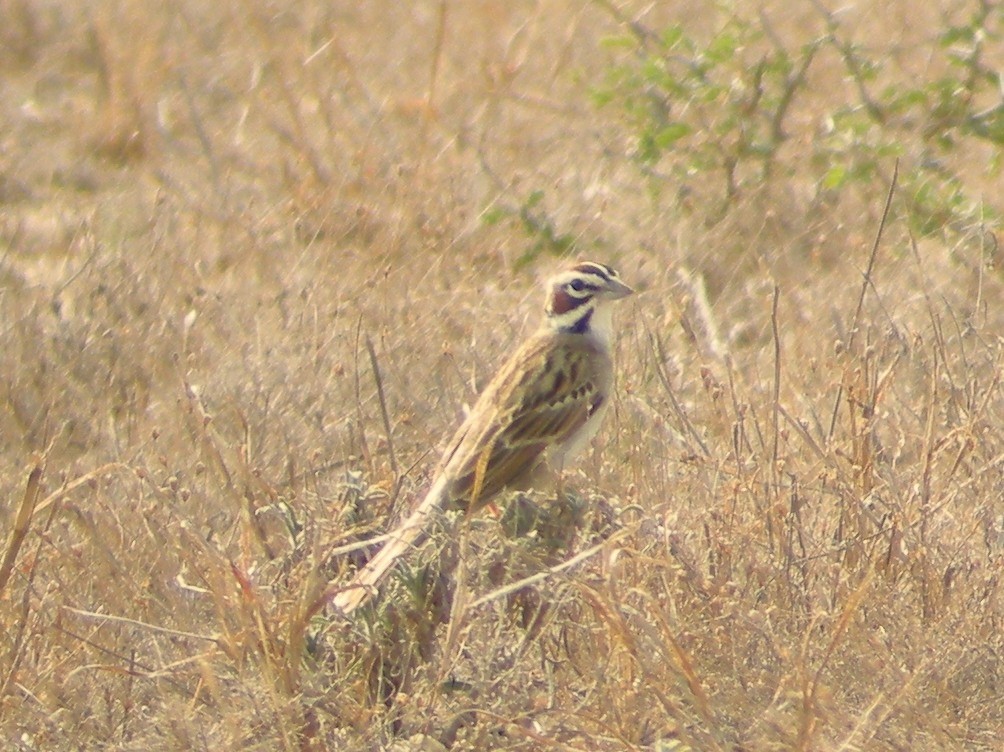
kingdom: Animalia
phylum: Chordata
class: Aves
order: Passeriformes
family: Passerellidae
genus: Chondestes
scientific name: Chondestes grammacus
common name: Lark sparrow
